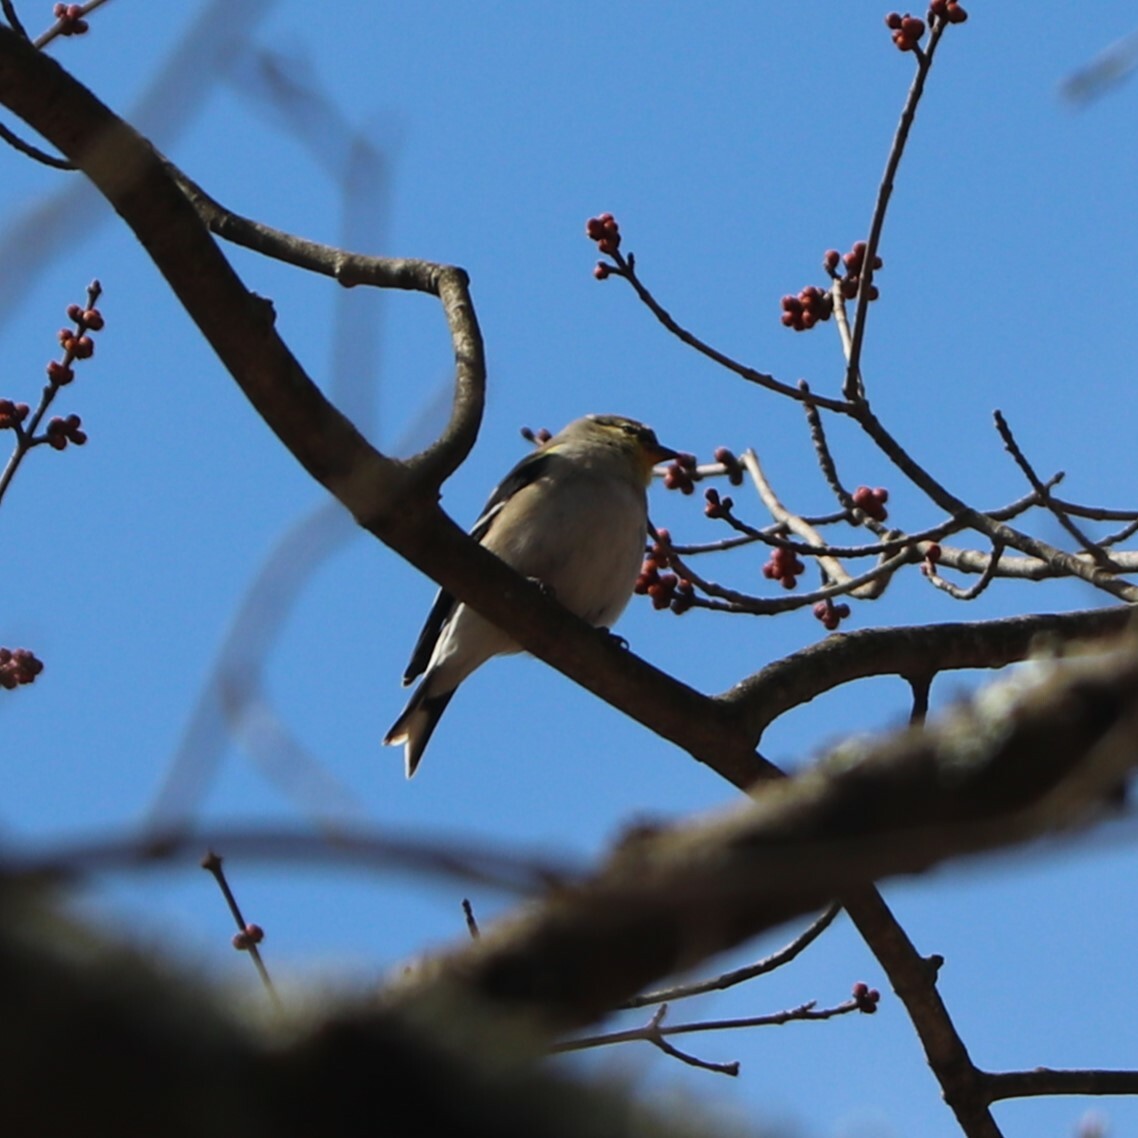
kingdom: Animalia
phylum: Chordata
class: Aves
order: Passeriformes
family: Fringillidae
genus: Spinus
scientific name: Spinus tristis
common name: American goldfinch
